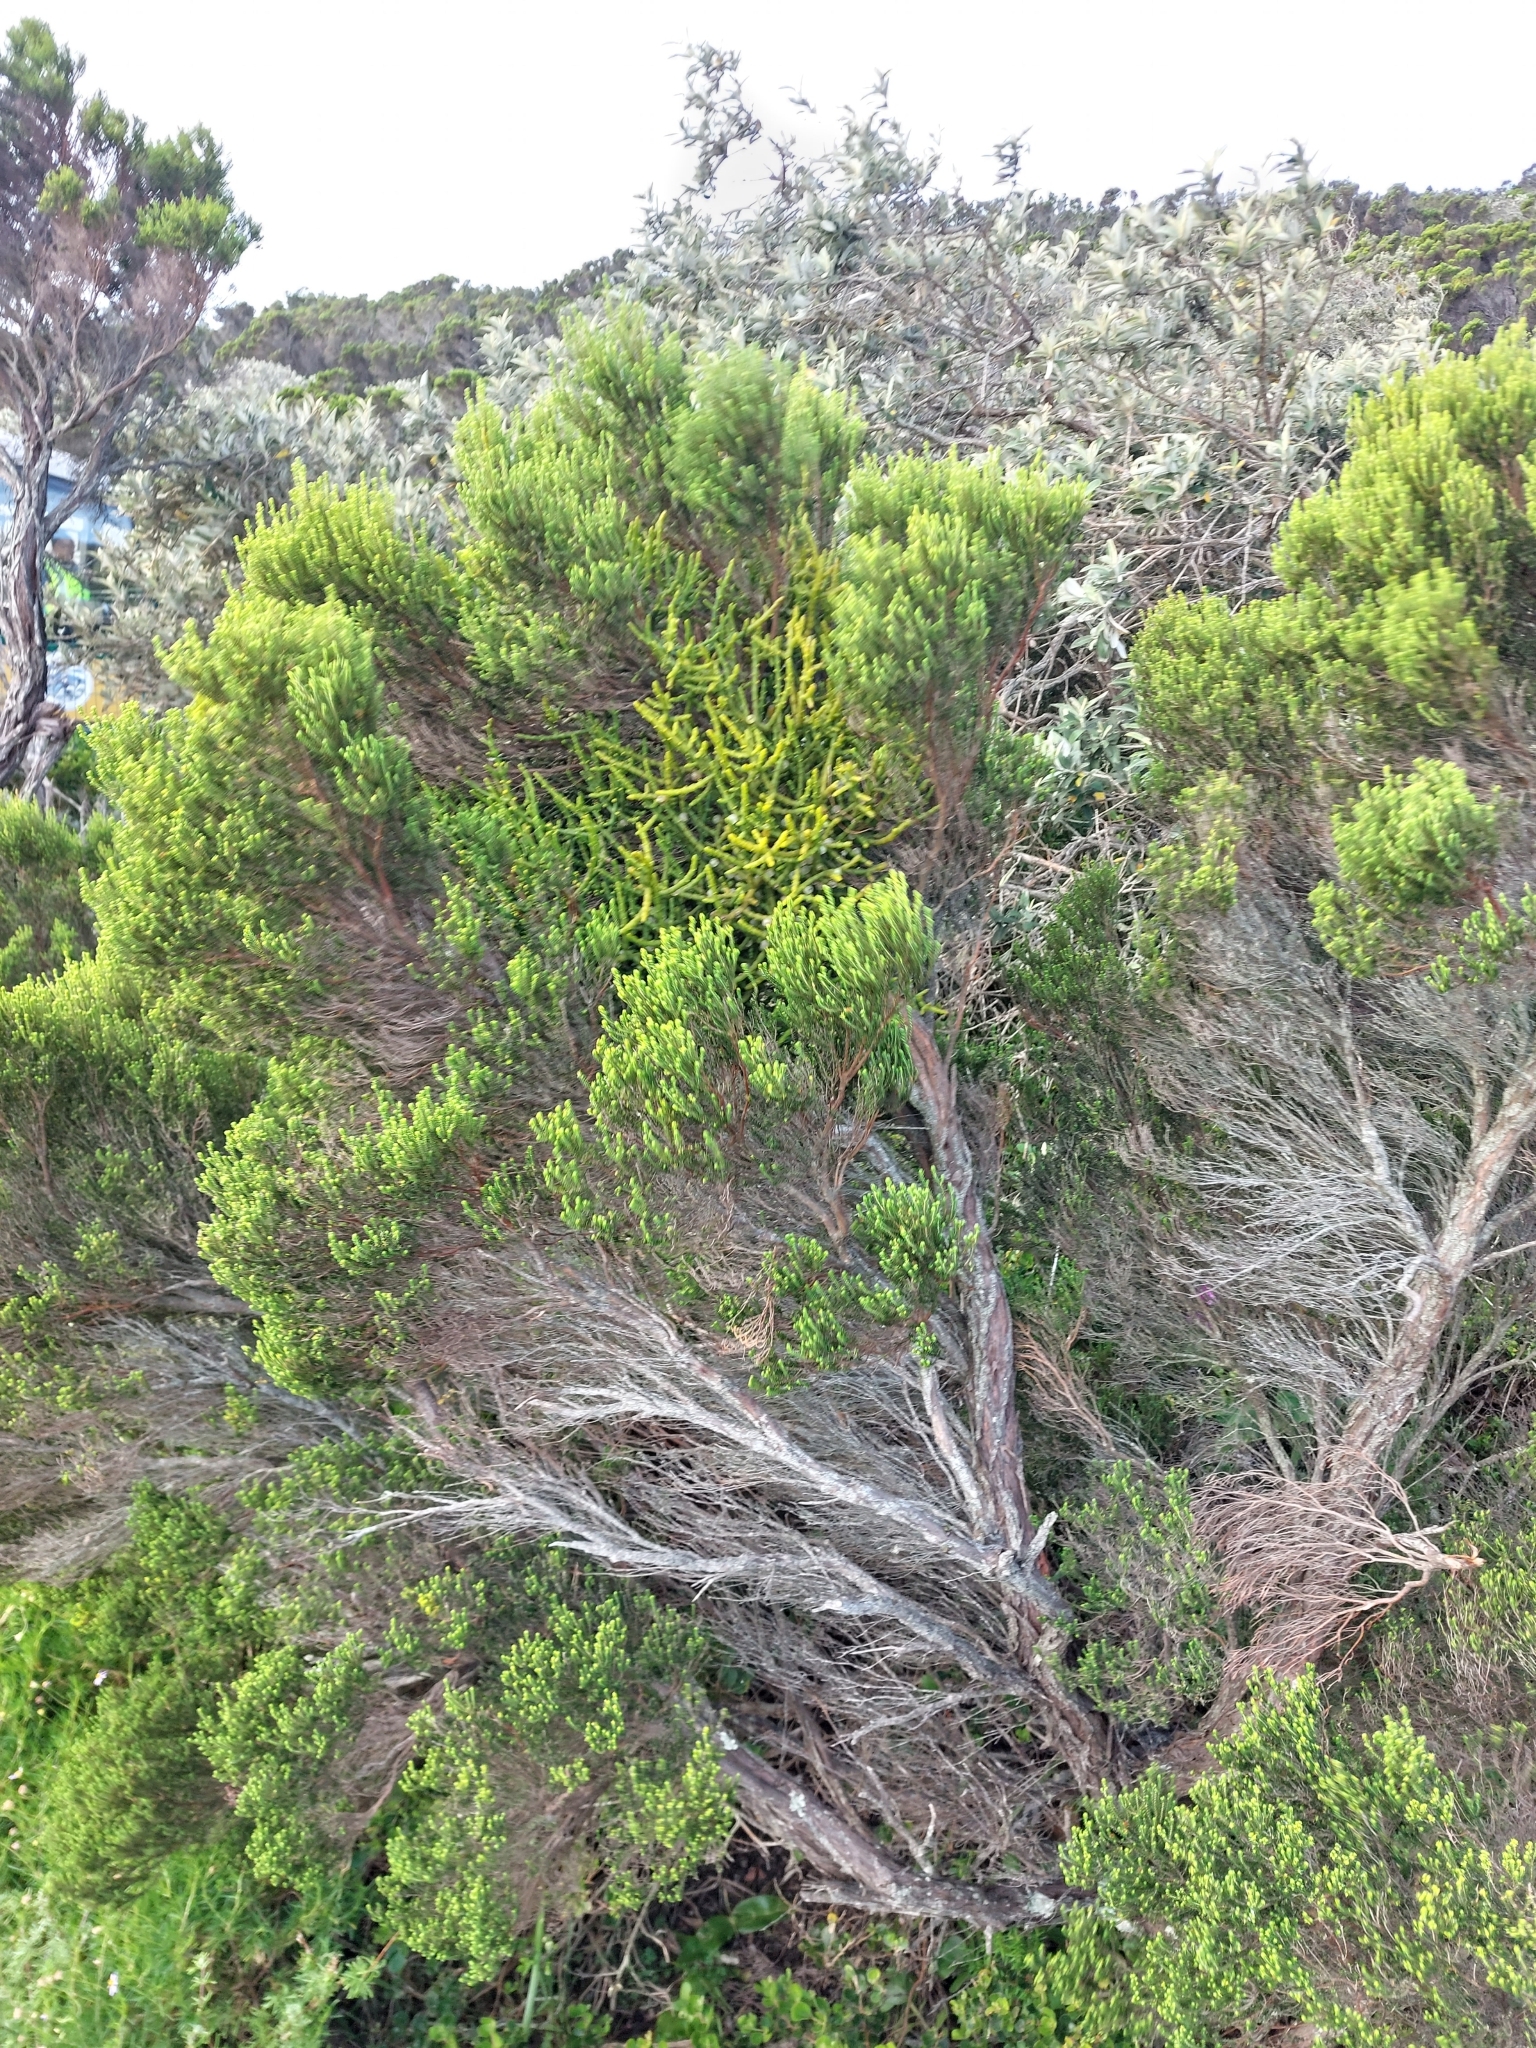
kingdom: Plantae
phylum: Tracheophyta
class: Magnoliopsida
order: Santalales
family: Viscaceae
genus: Viscum
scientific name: Viscum capense
